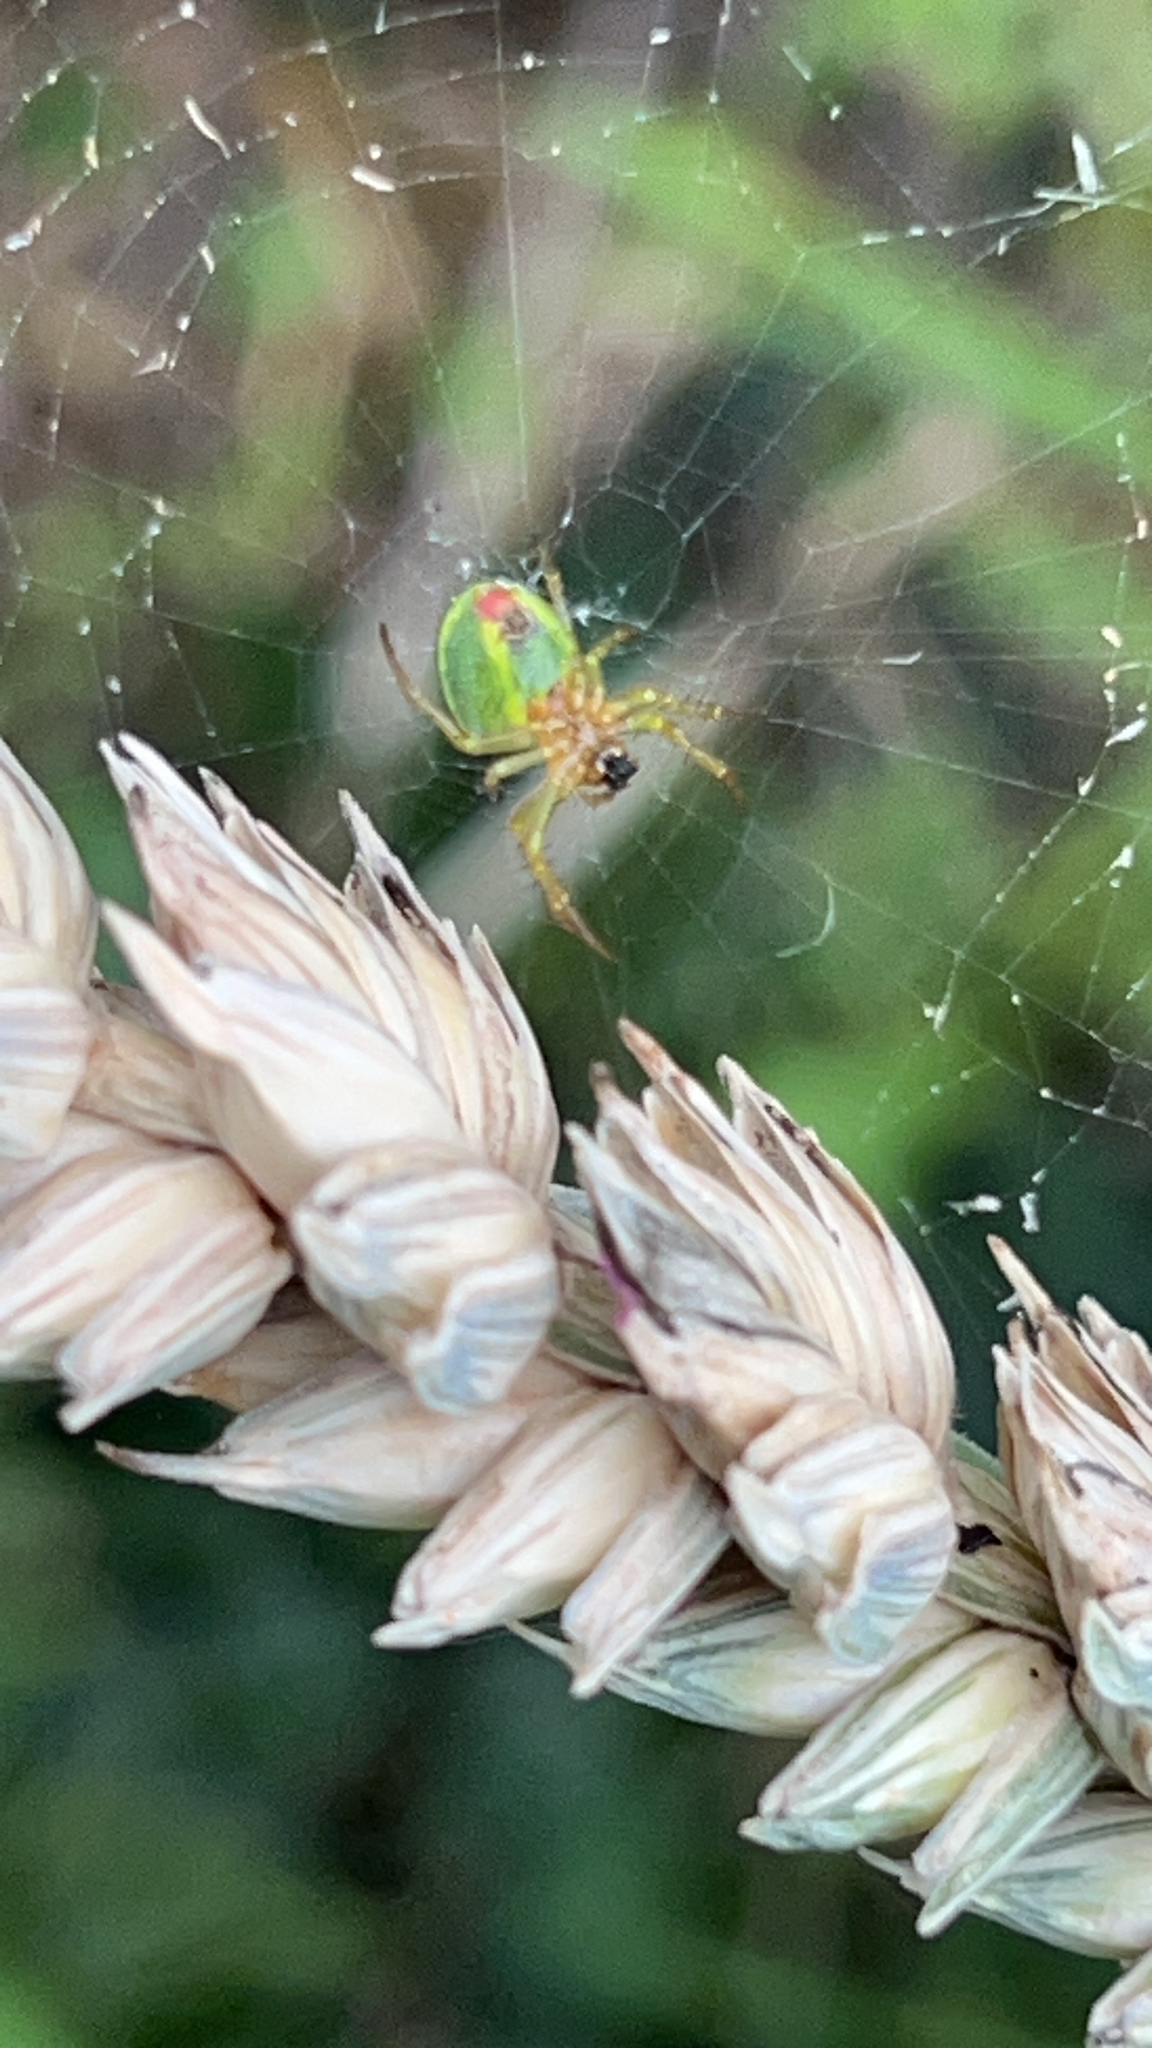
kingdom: Animalia
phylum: Arthropoda
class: Arachnida
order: Araneae
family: Araneidae
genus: Araniella
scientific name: Araniella cucurbitina
